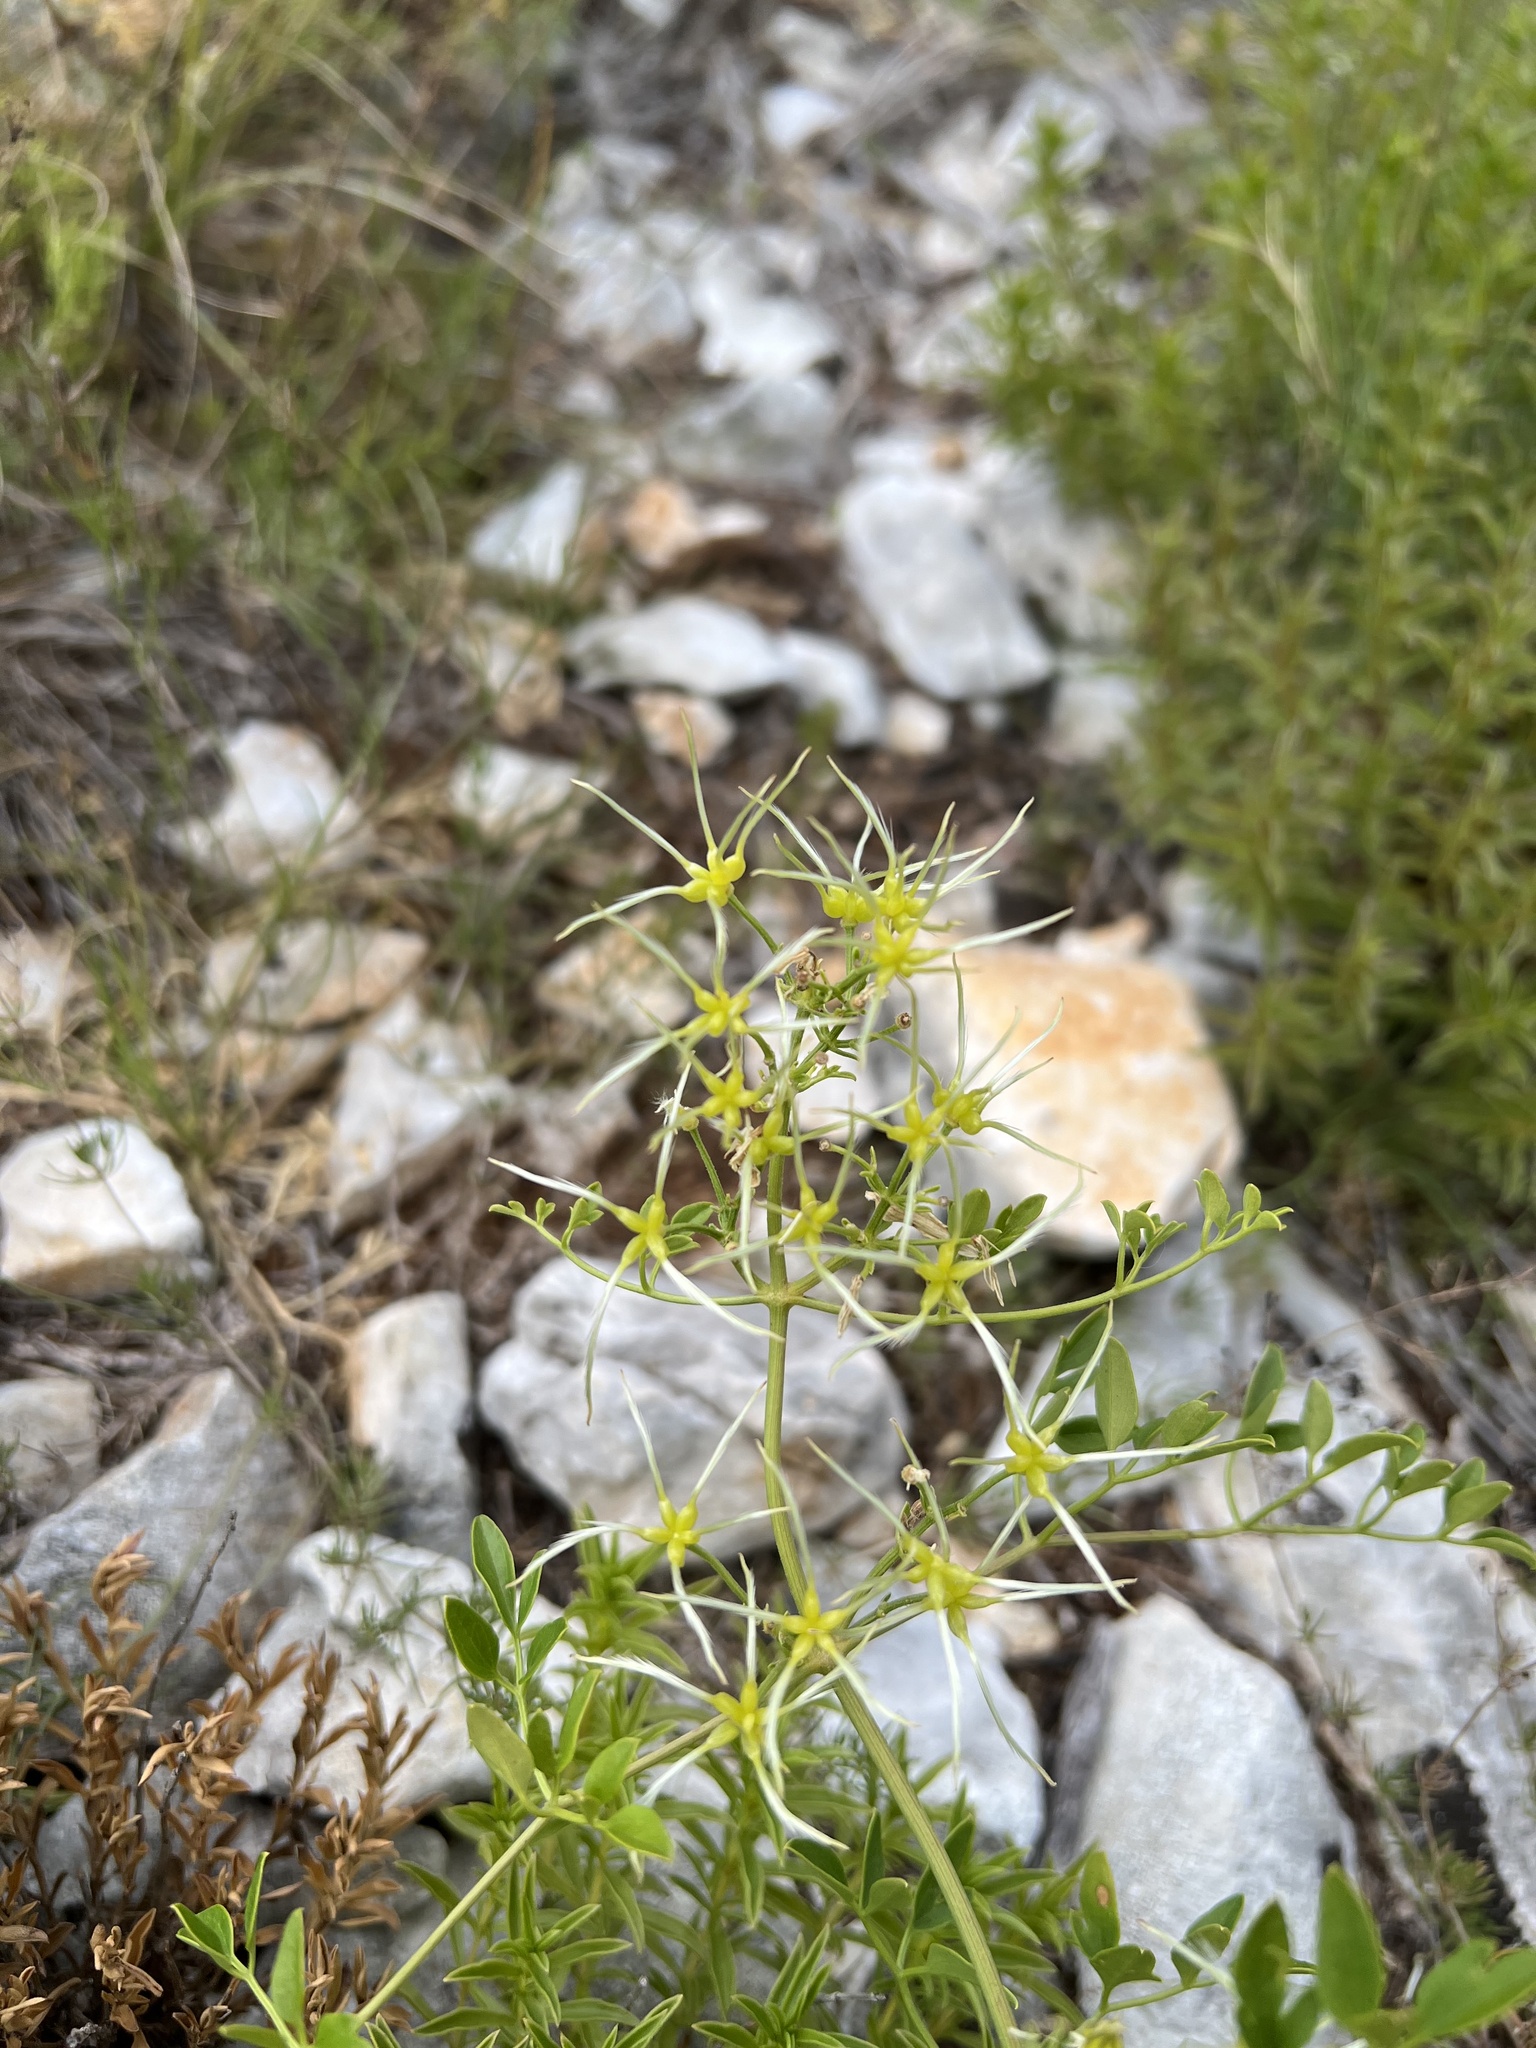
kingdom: Plantae
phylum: Tracheophyta
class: Magnoliopsida
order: Ranunculales
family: Ranunculaceae
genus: Clematis
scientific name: Clematis flammula
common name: Virgin's-bower
